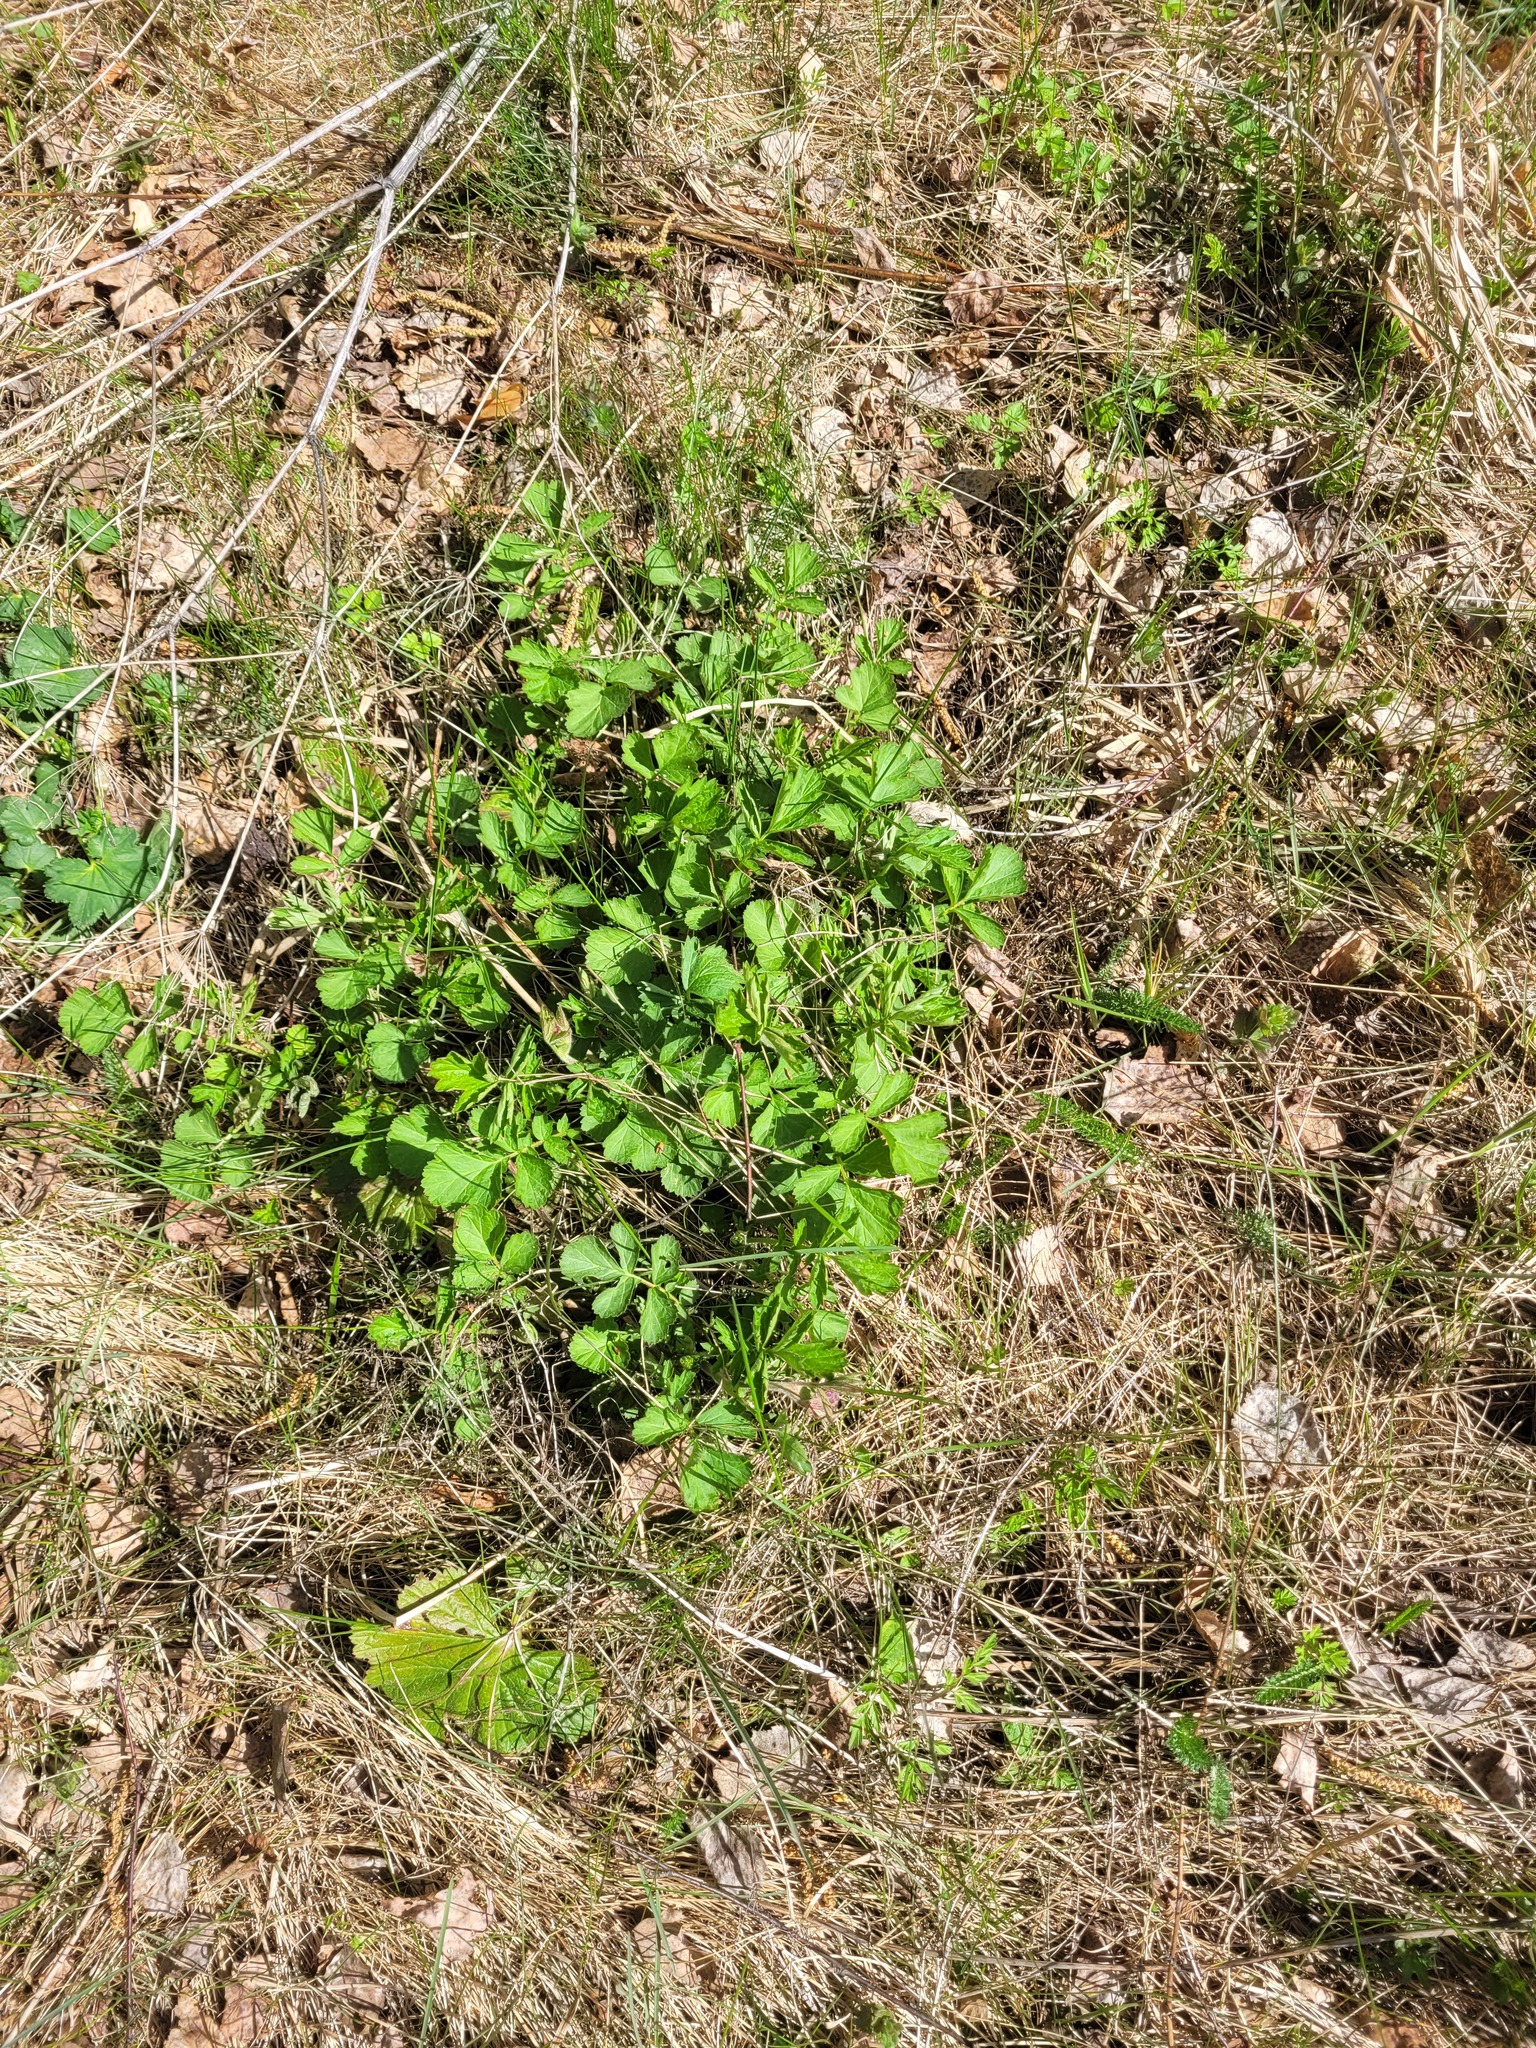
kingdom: Plantae
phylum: Tracheophyta
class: Magnoliopsida
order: Rosales
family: Rosaceae
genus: Geum
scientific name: Geum rivale
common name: Water avens
